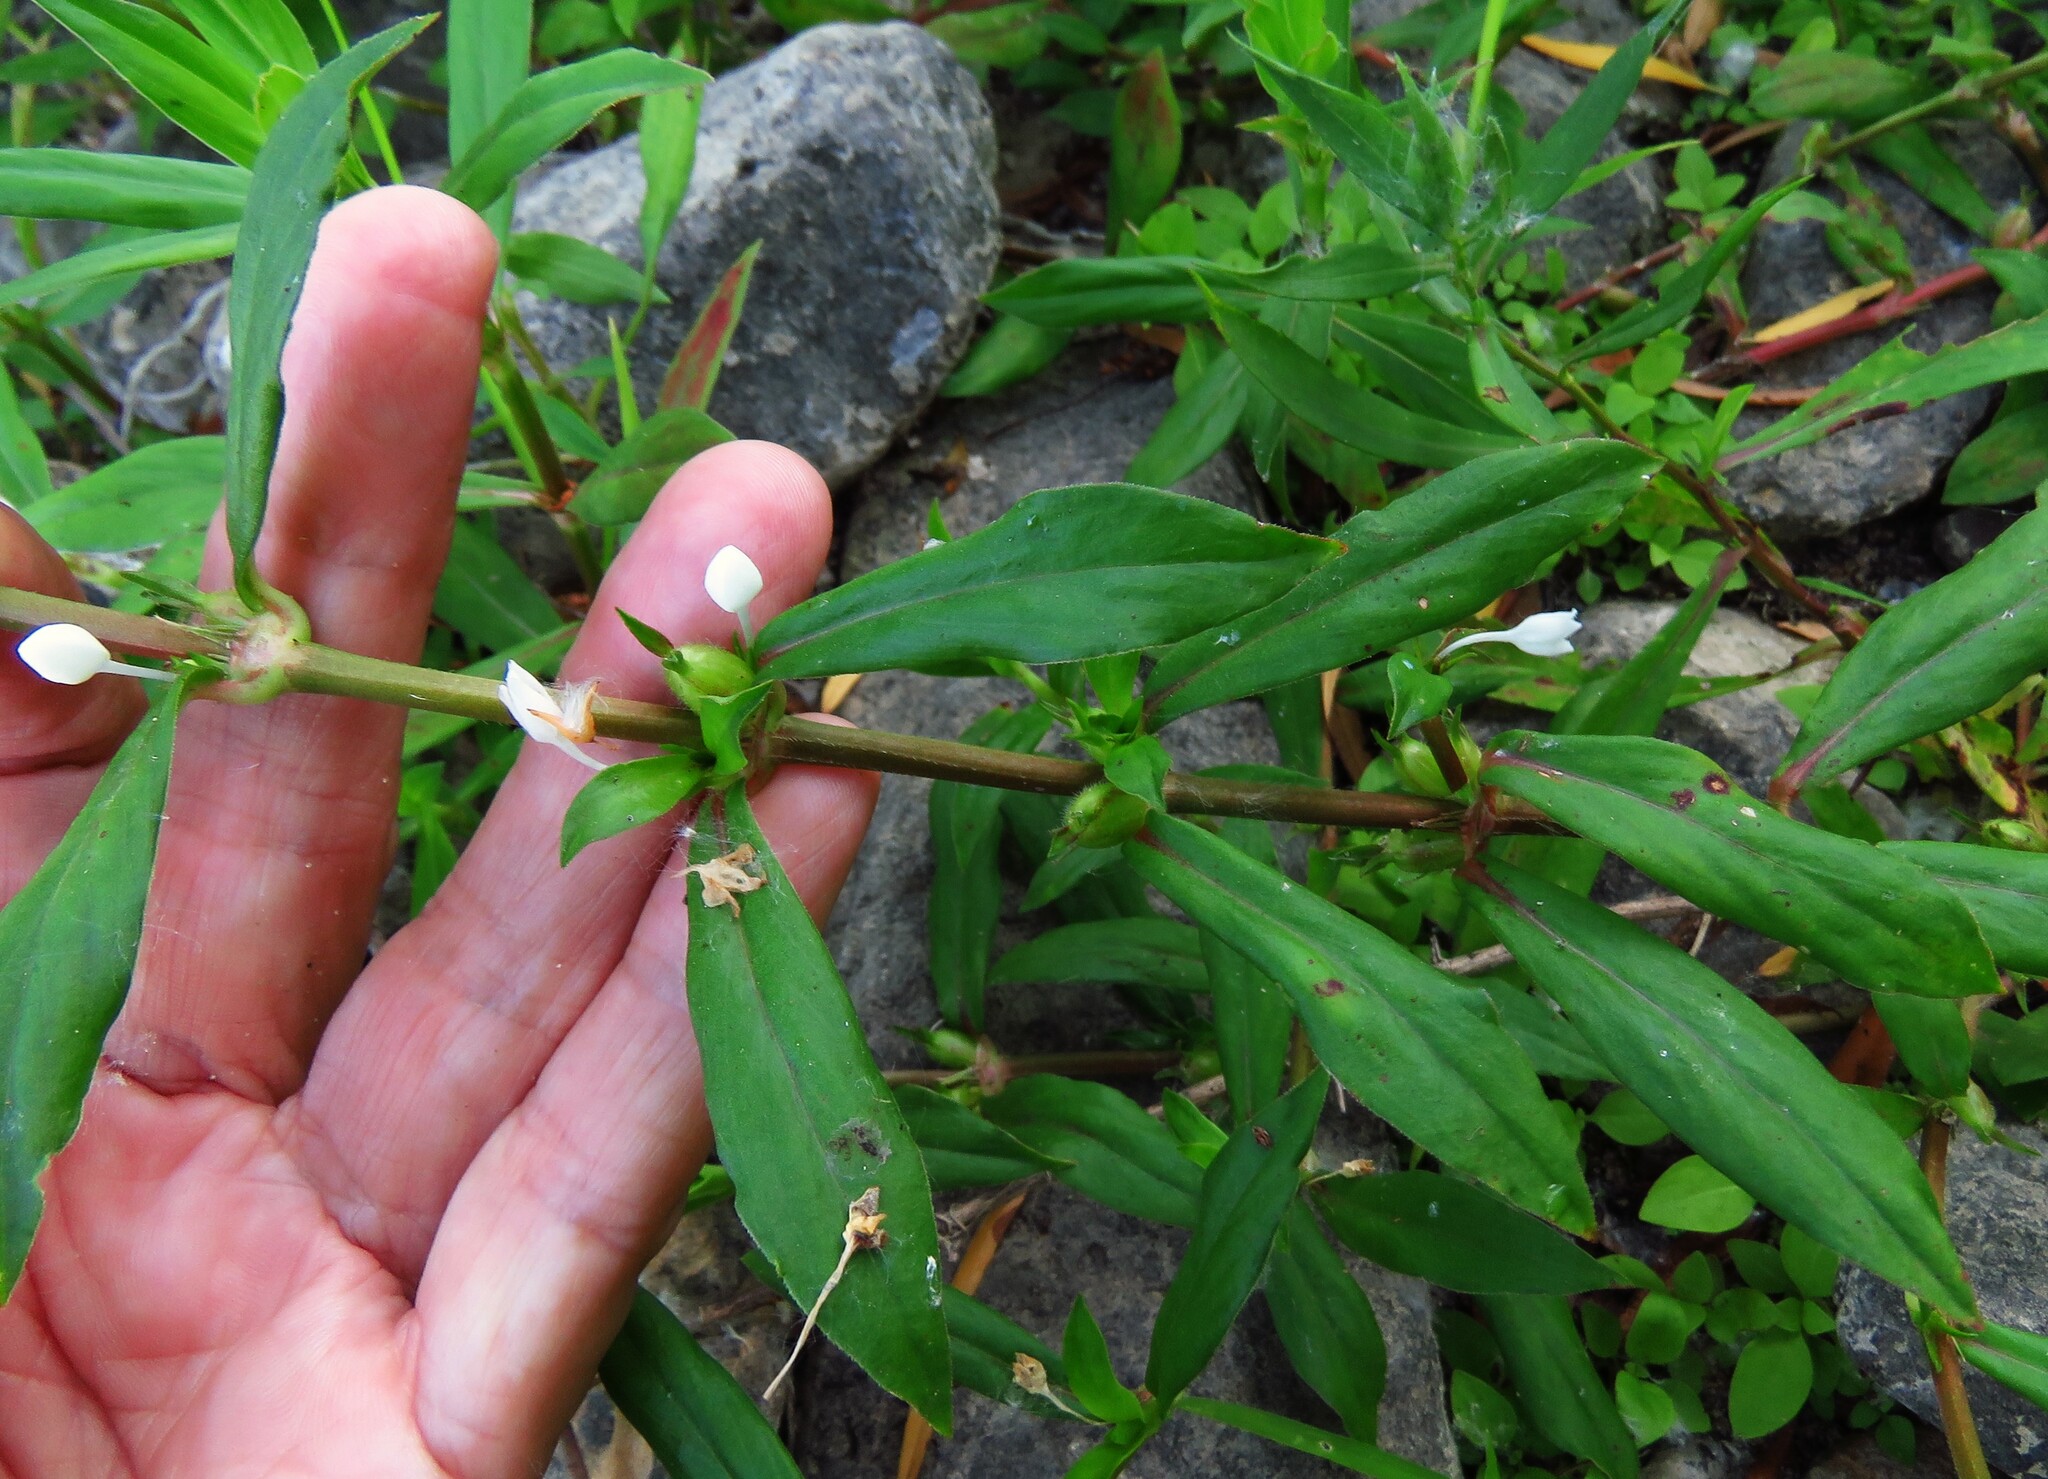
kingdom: Plantae
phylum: Tracheophyta
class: Magnoliopsida
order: Gentianales
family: Rubiaceae
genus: Diodia
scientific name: Diodia virginiana
